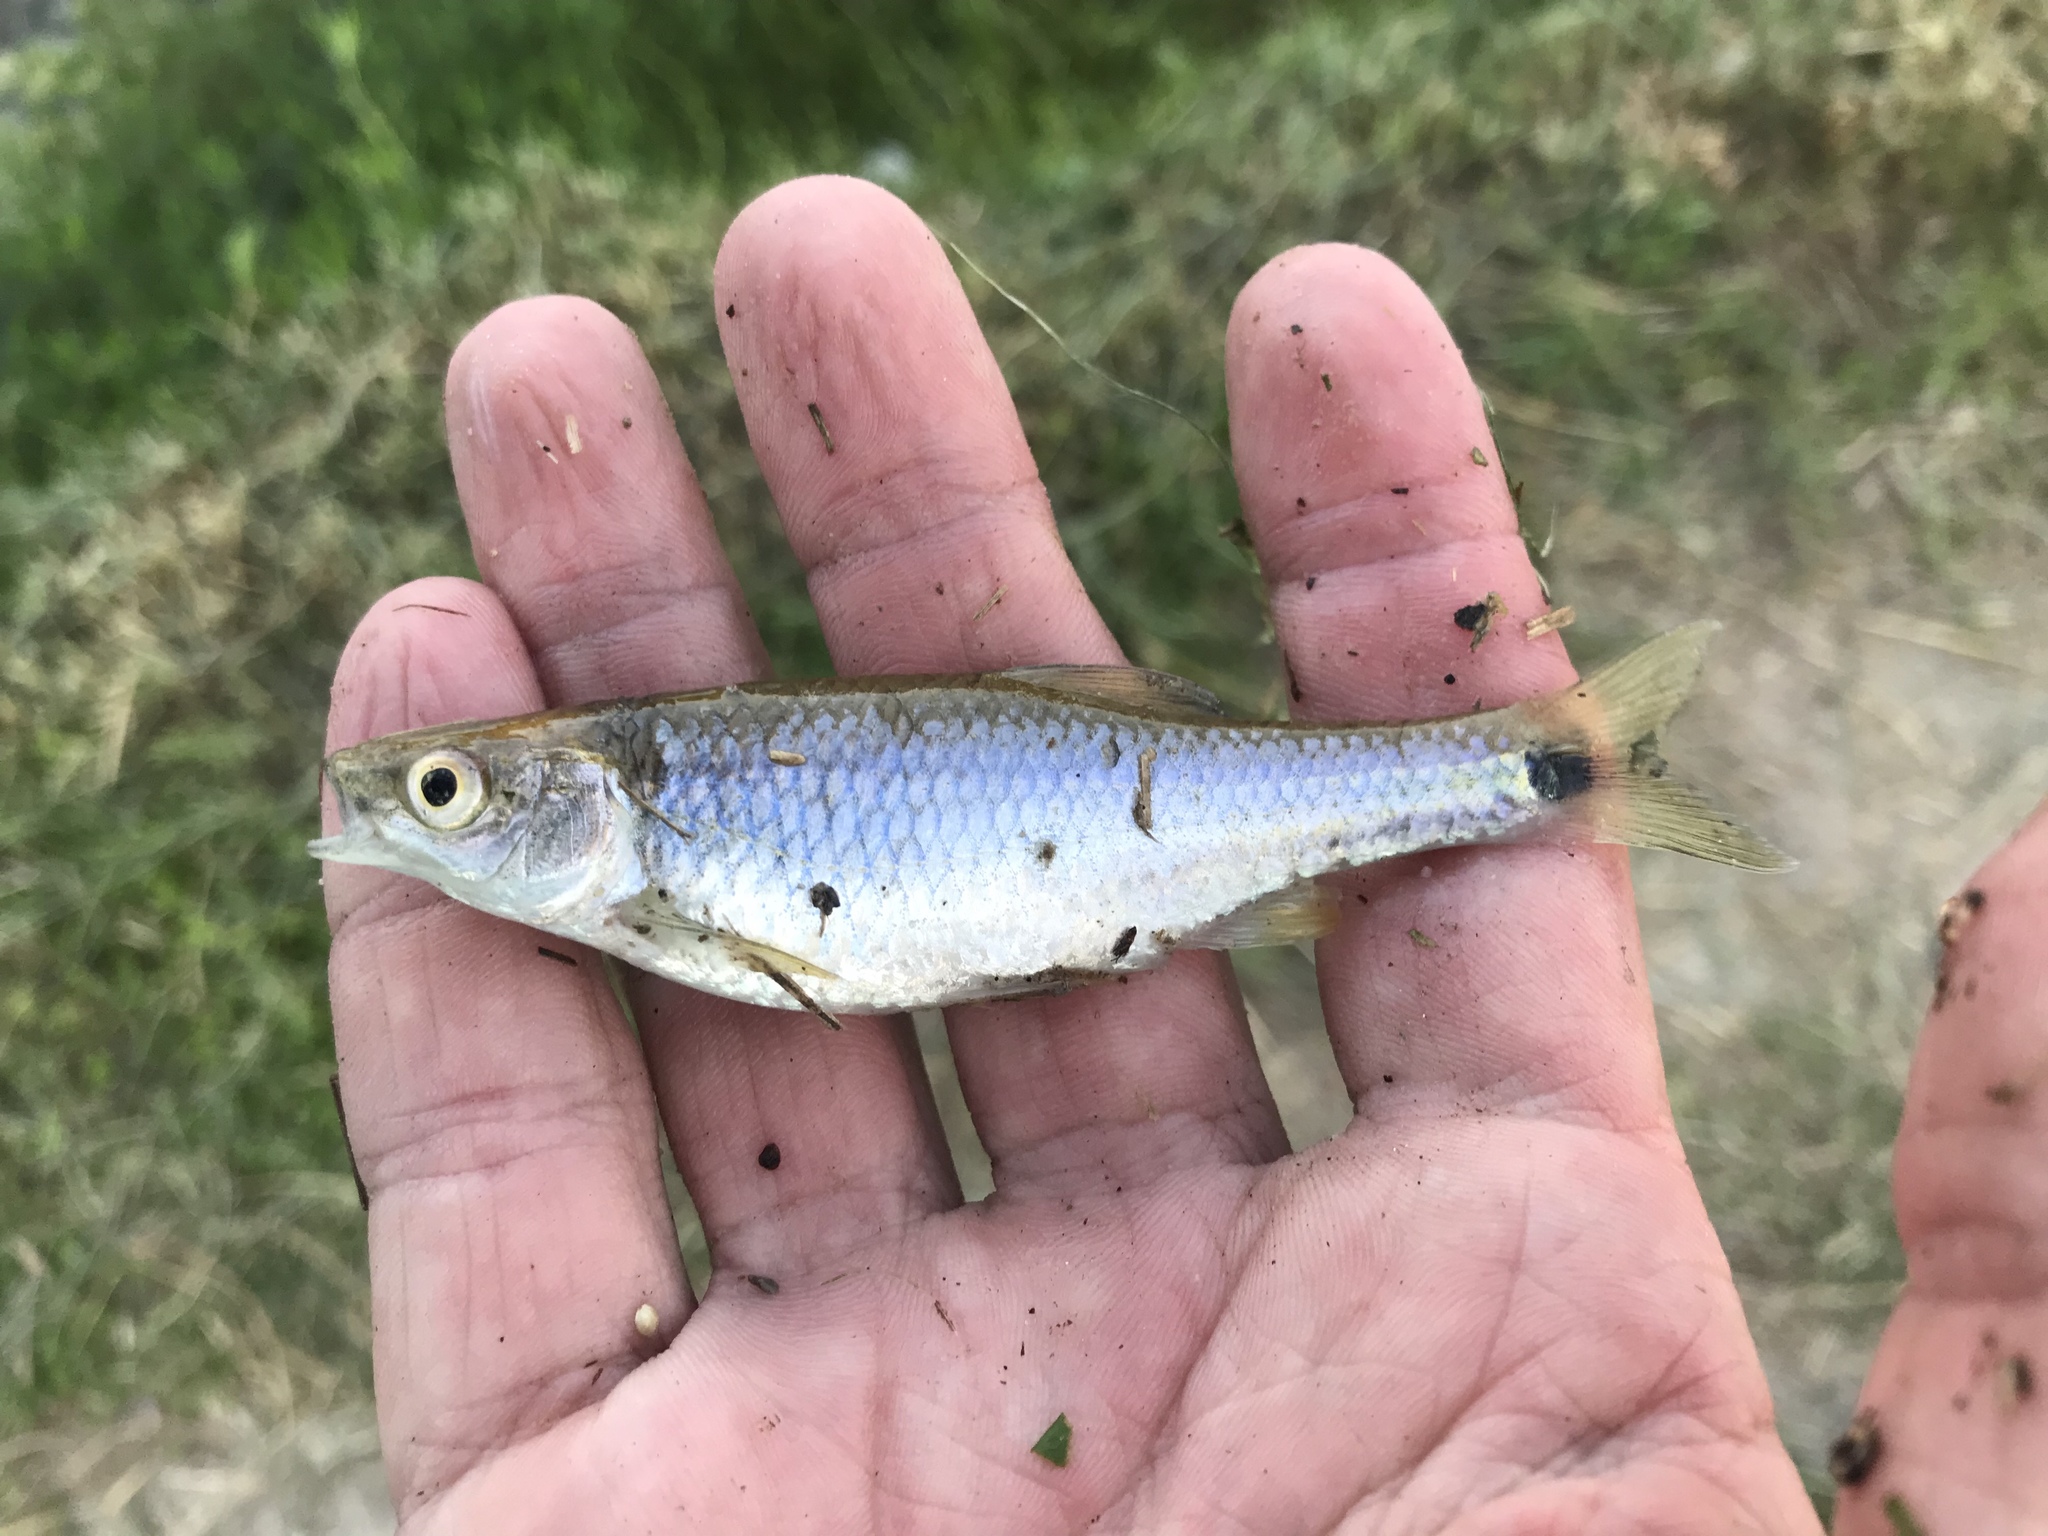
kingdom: Animalia
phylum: Chordata
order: Cypriniformes
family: Cyprinidae
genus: Cyprinella
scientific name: Cyprinella venusta
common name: Blacktail shiner
